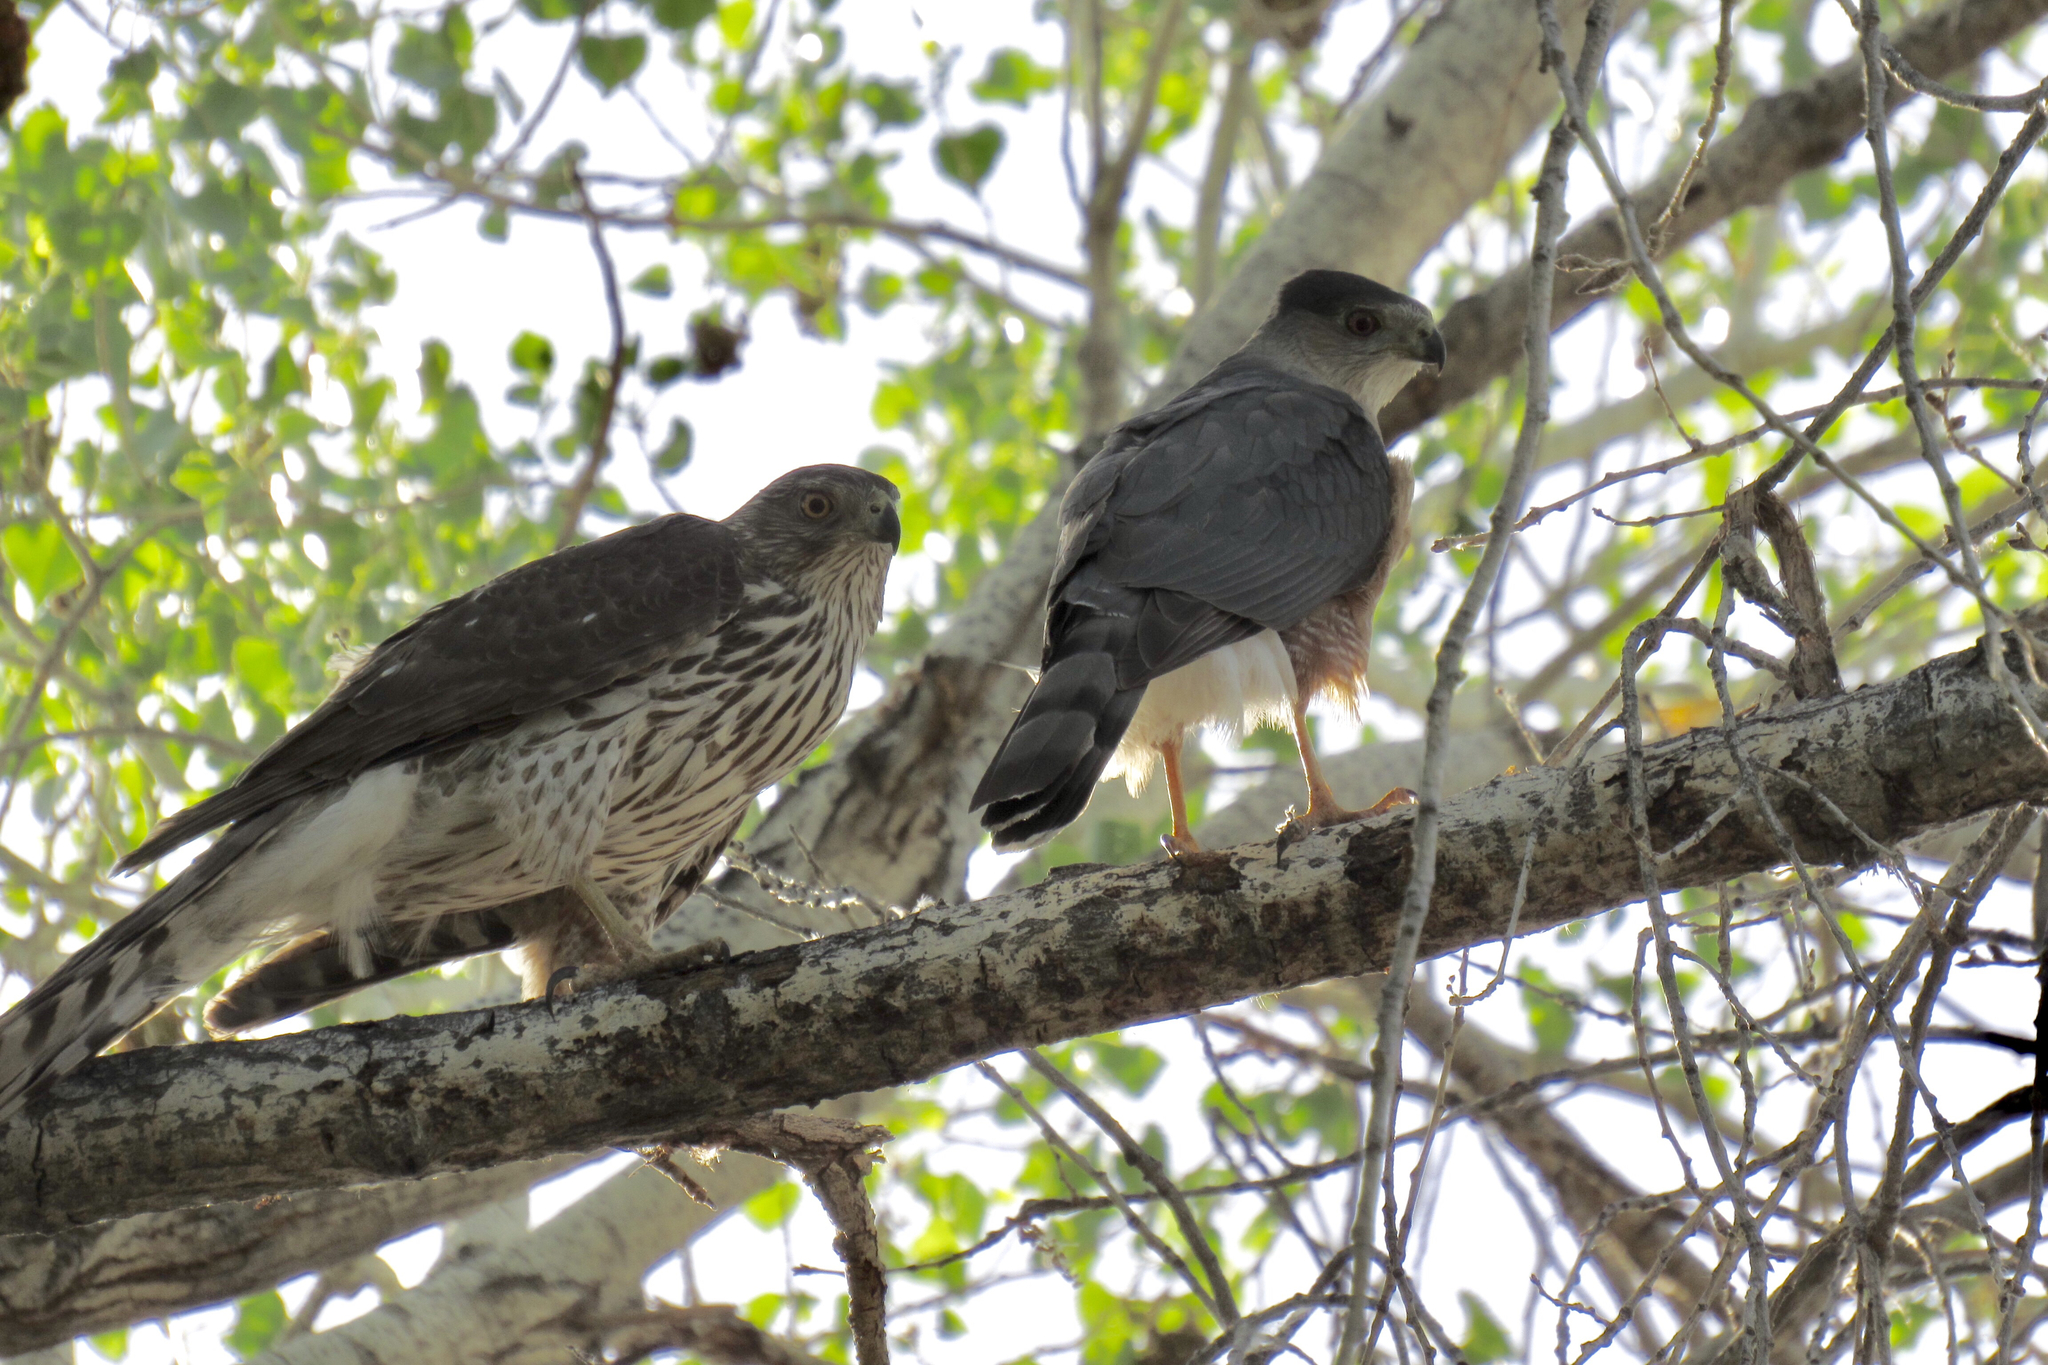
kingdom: Animalia
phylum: Chordata
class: Aves
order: Accipitriformes
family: Accipitridae
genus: Accipiter
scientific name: Accipiter cooperii
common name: Cooper's hawk
